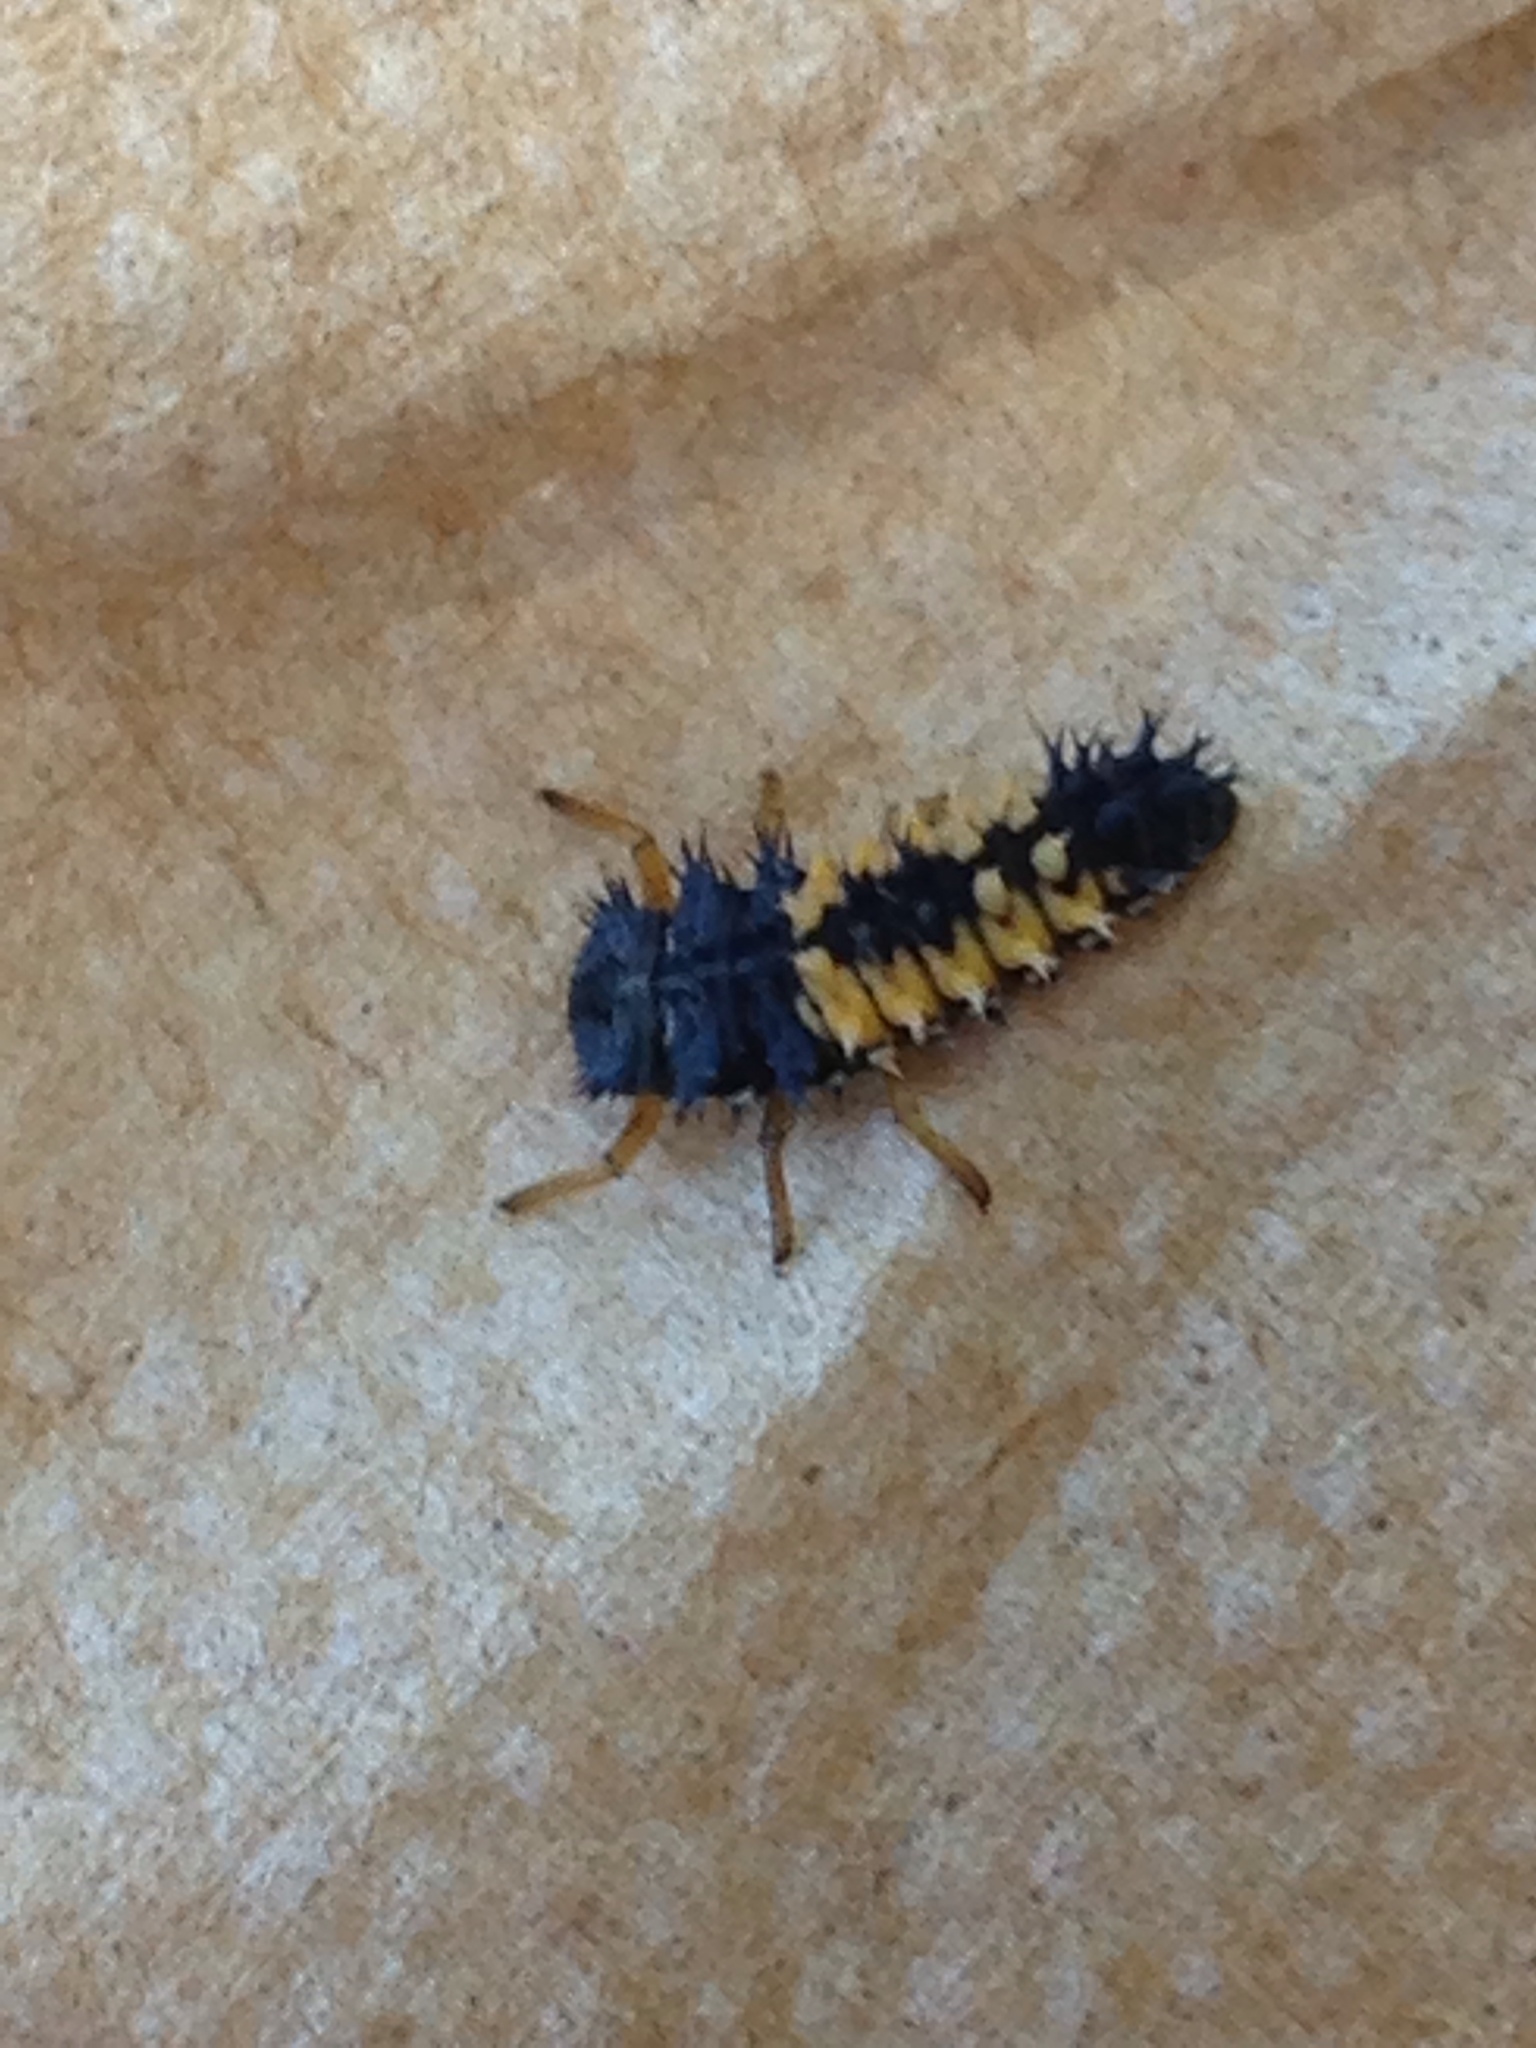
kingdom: Animalia
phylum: Arthropoda
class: Insecta
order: Coleoptera
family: Coccinellidae
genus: Harmonia
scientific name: Harmonia axyridis
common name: Harlequin ladybird
